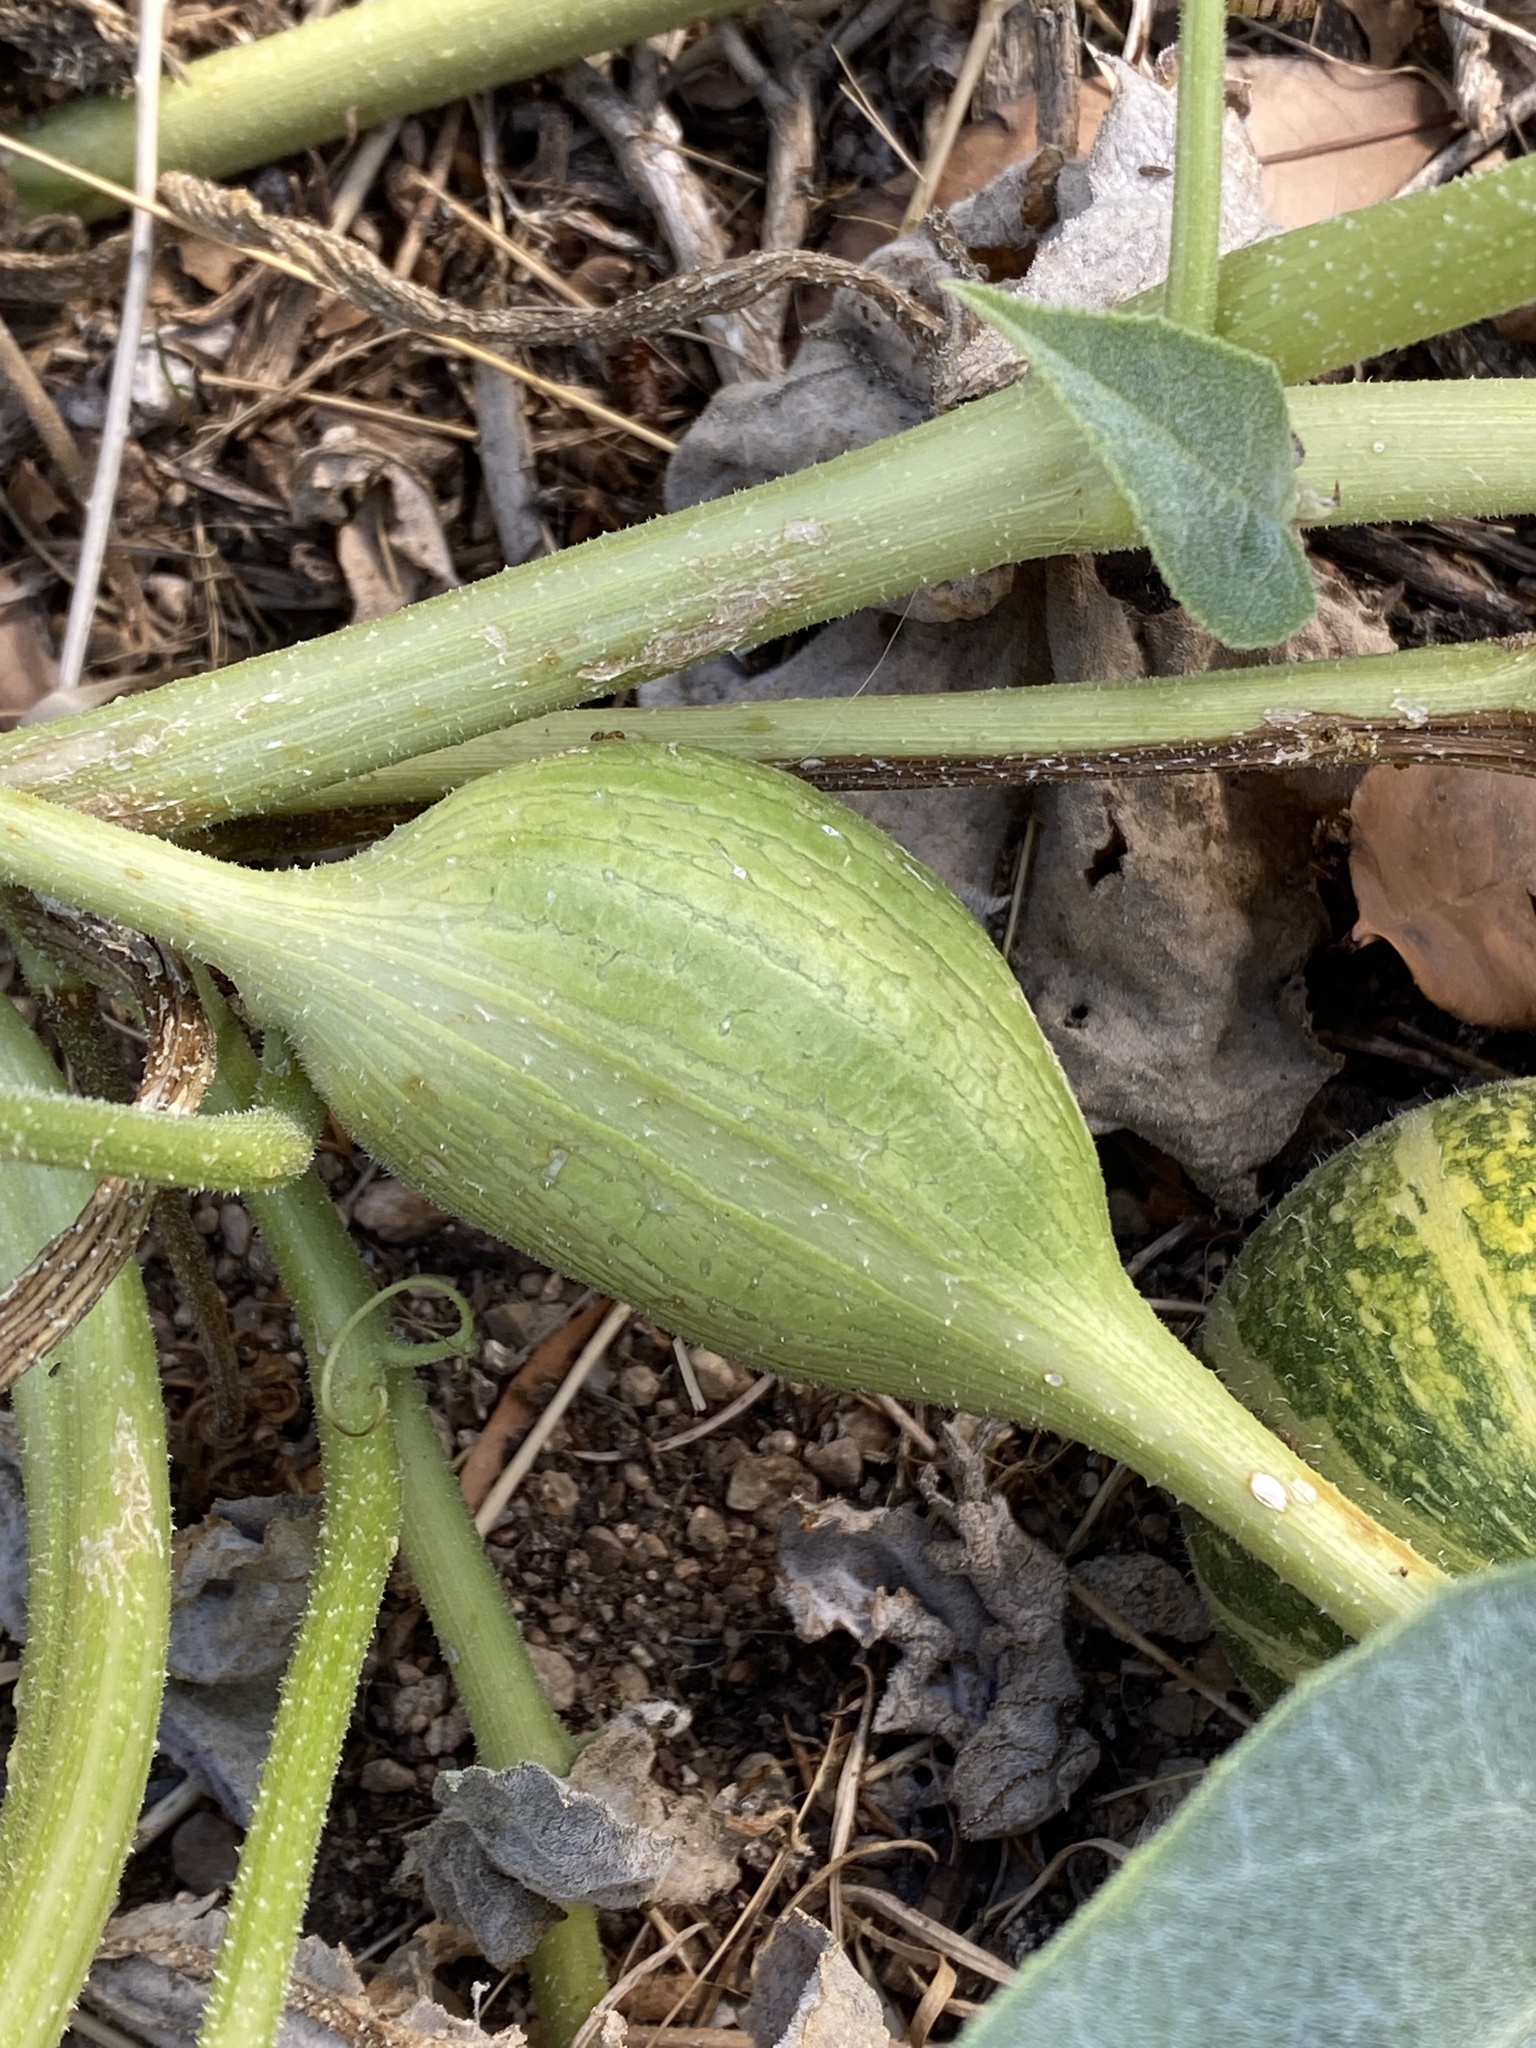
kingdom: Animalia
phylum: Arthropoda
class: Insecta
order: Lepidoptera
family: Sesiidae
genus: Eichlinia
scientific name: Eichlinia snowii
